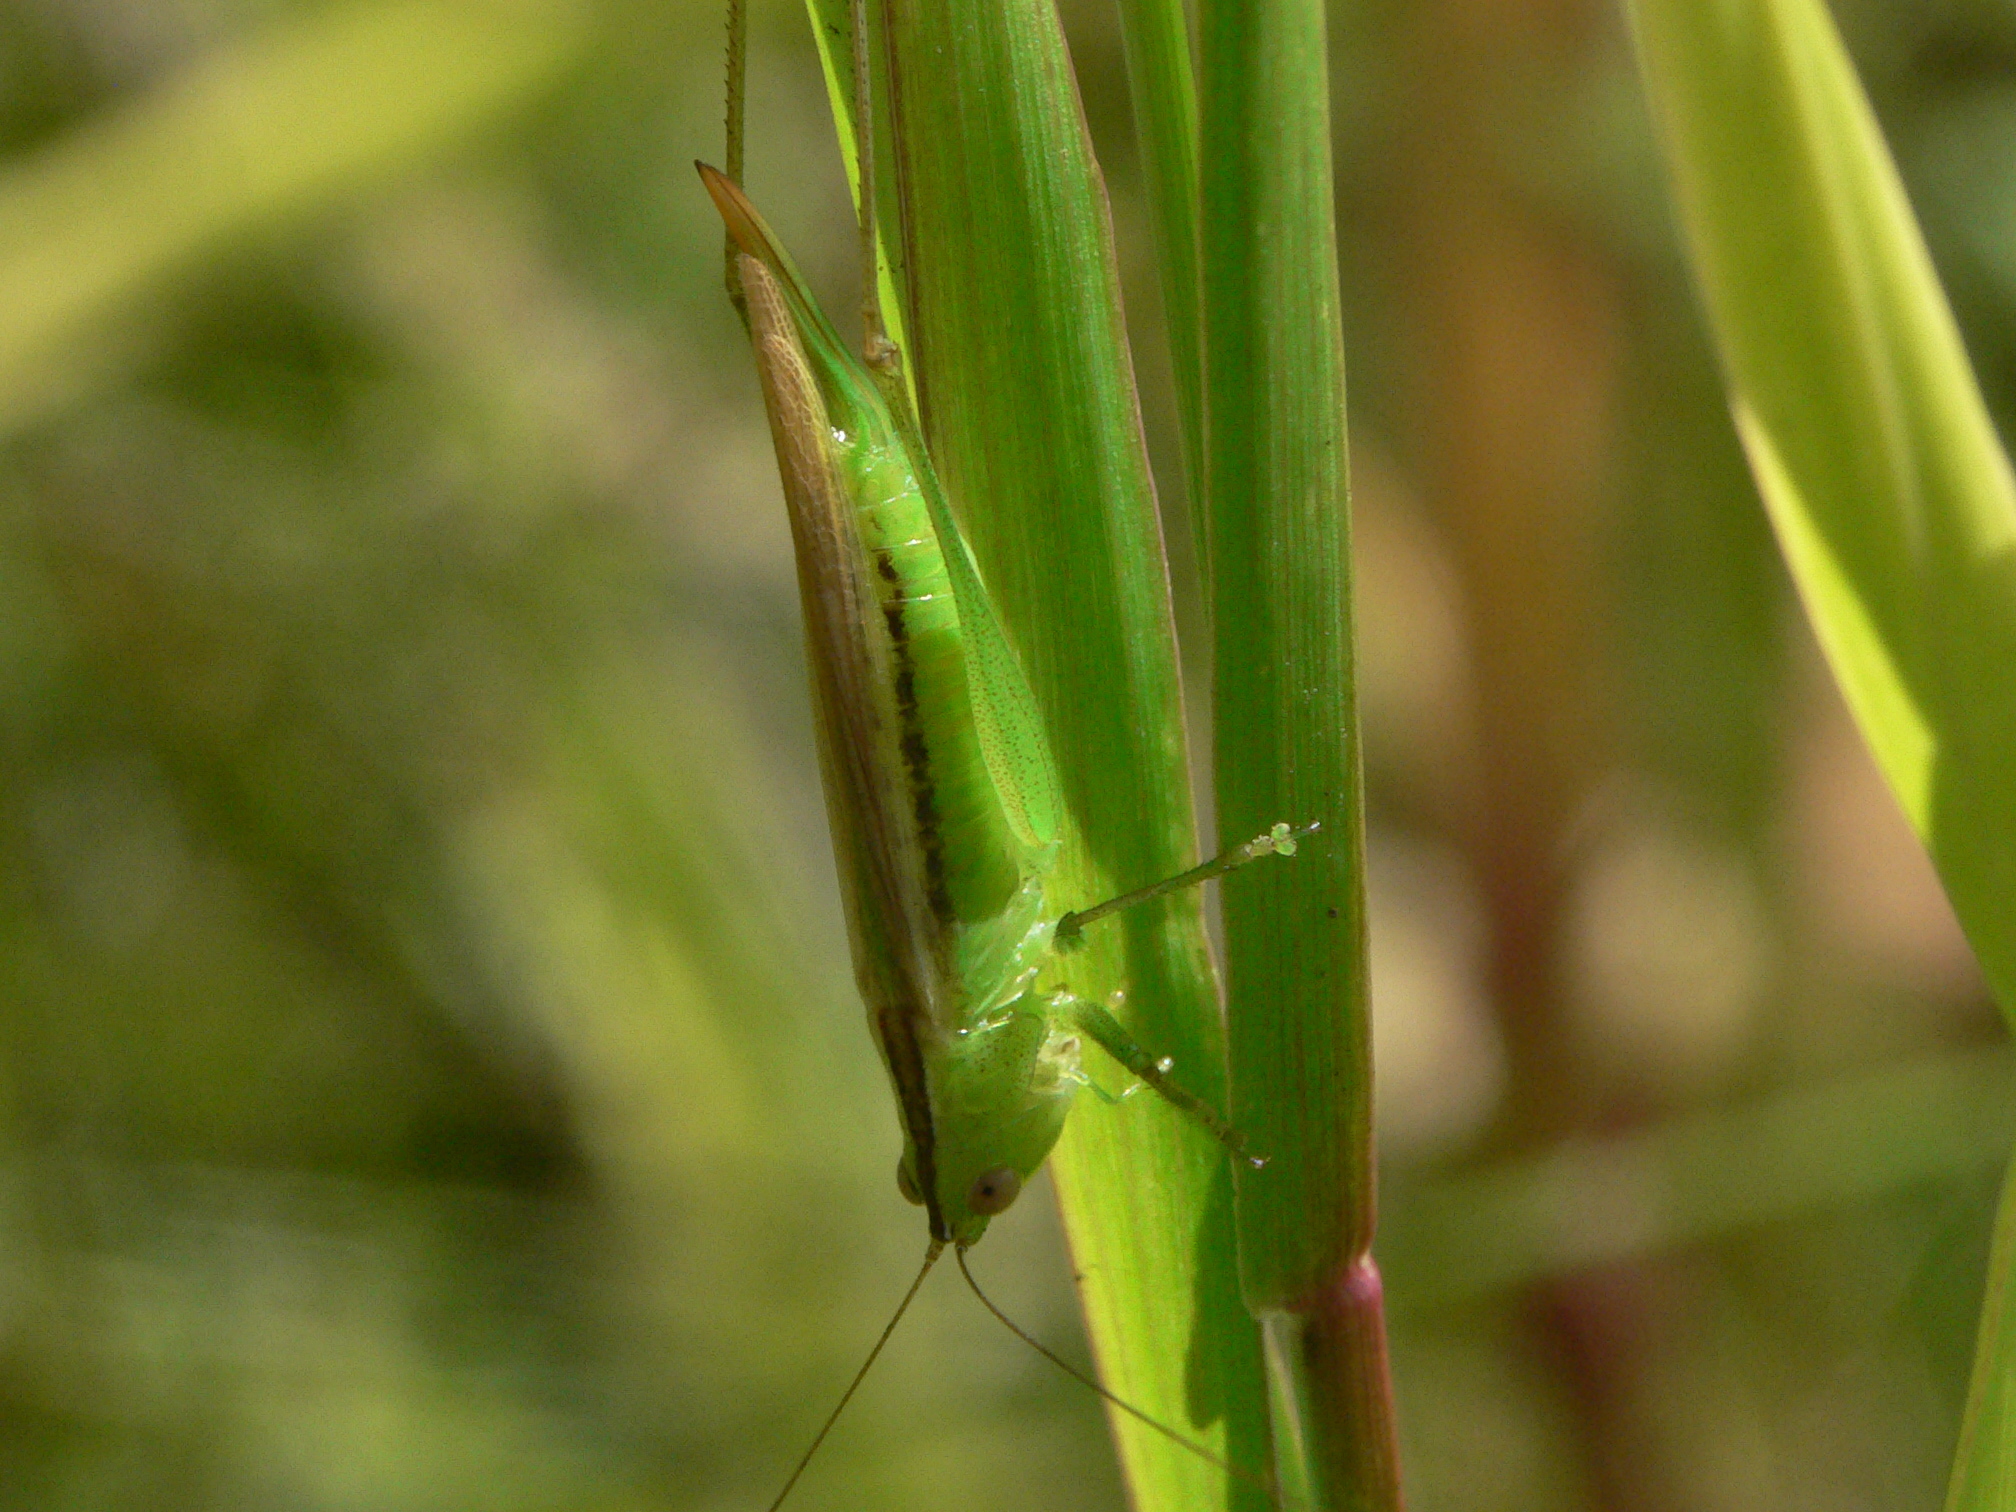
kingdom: Animalia
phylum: Arthropoda
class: Insecta
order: Orthoptera
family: Tettigoniidae
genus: Conocephalus
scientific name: Conocephalus fasciatus
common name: Slender meadow katydid
